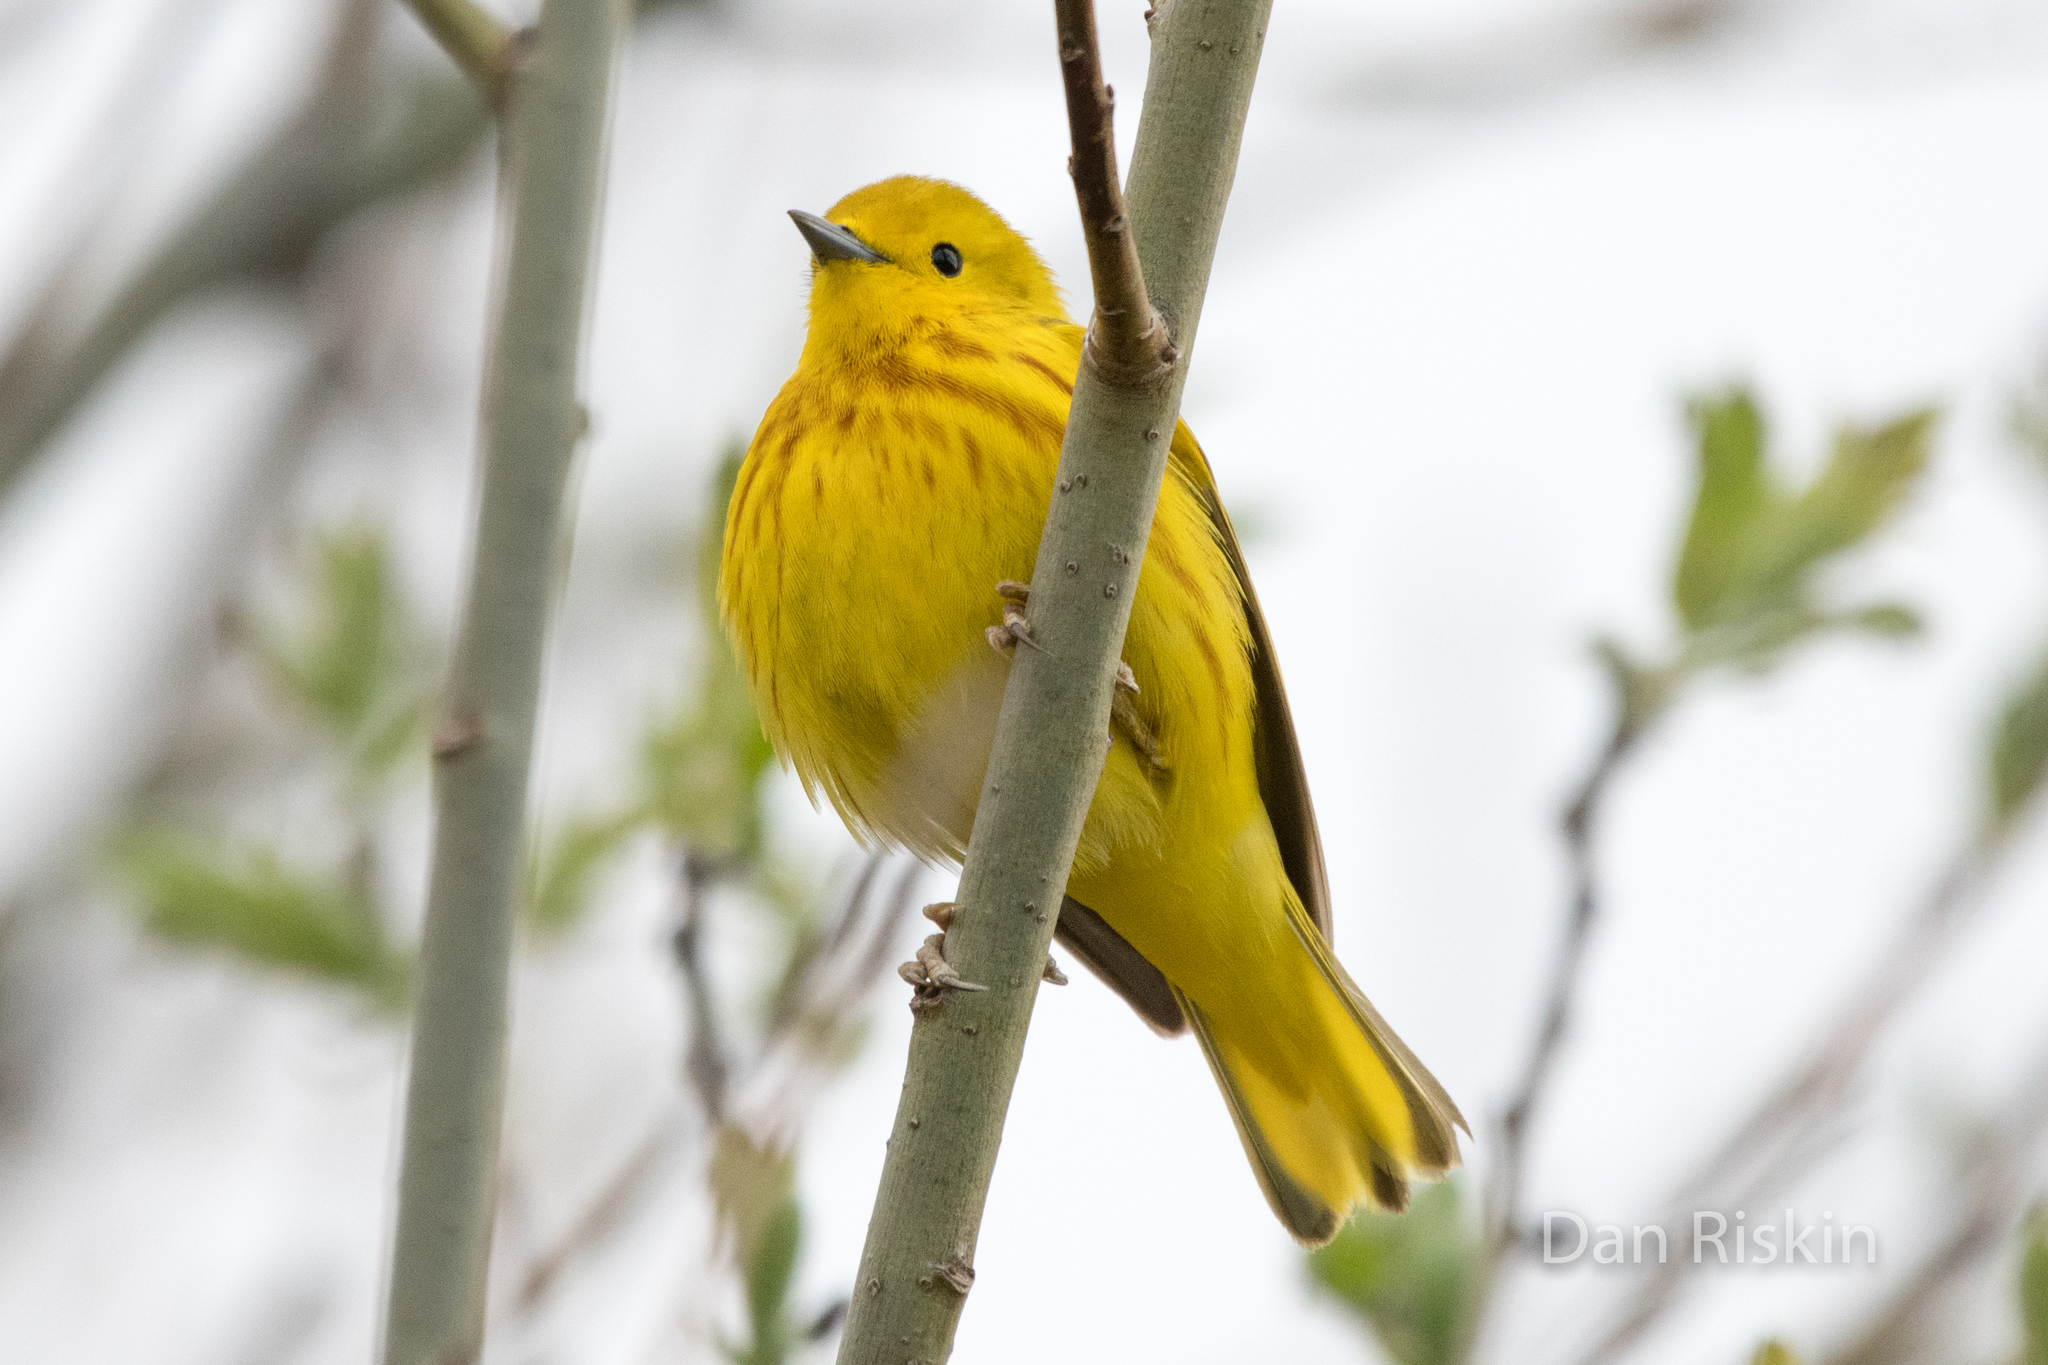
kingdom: Animalia
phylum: Chordata
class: Aves
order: Passeriformes
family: Parulidae
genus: Setophaga
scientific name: Setophaga petechia
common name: Yellow warbler
